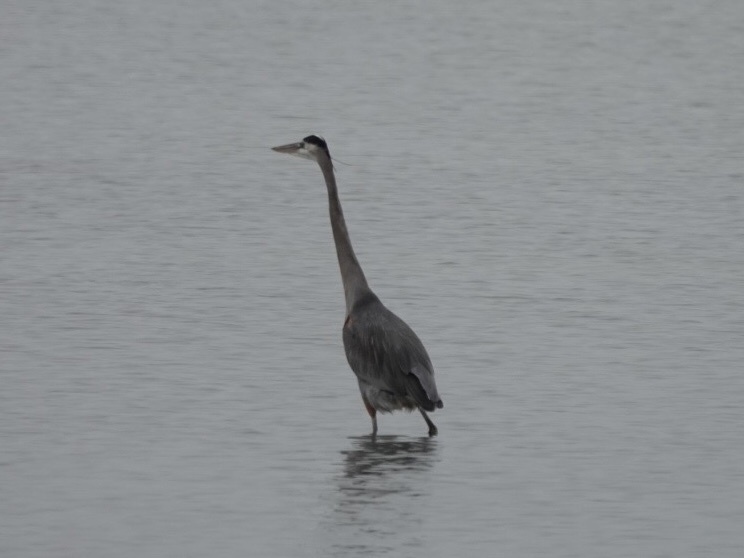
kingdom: Animalia
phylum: Chordata
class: Aves
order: Pelecaniformes
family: Ardeidae
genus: Ardea
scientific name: Ardea herodias
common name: Great blue heron
